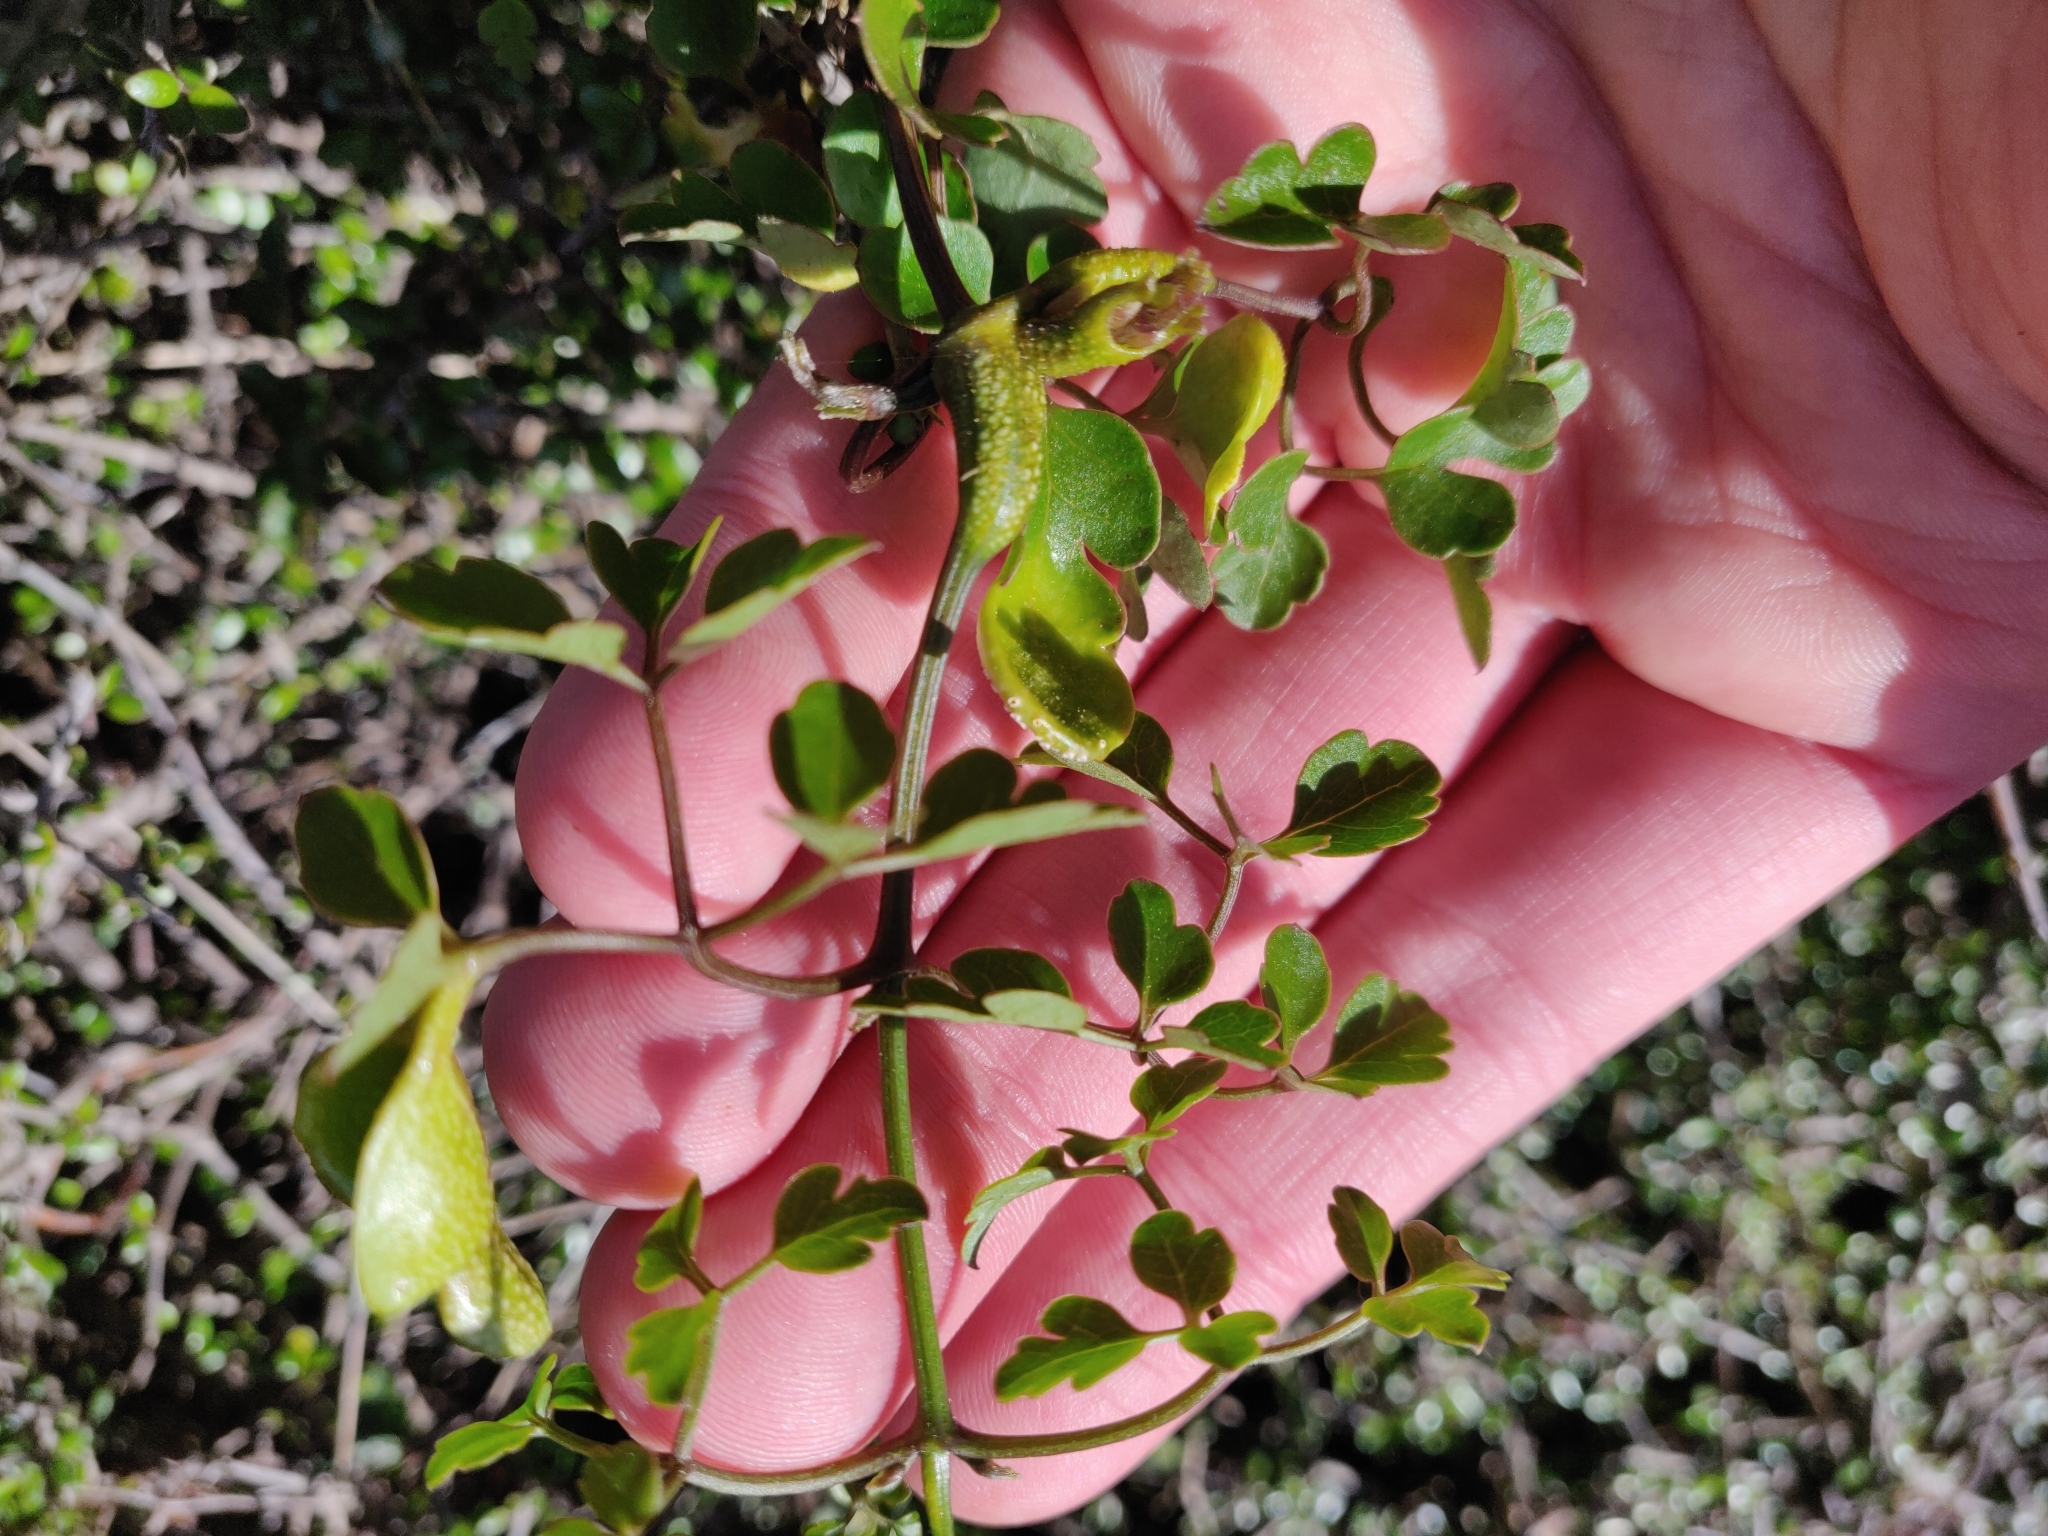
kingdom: Fungi
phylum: Basidiomycota
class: Pucciniomycetes
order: Pucciniales
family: Pucciniaceae
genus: Puccinia
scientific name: Puccinia otagensis
